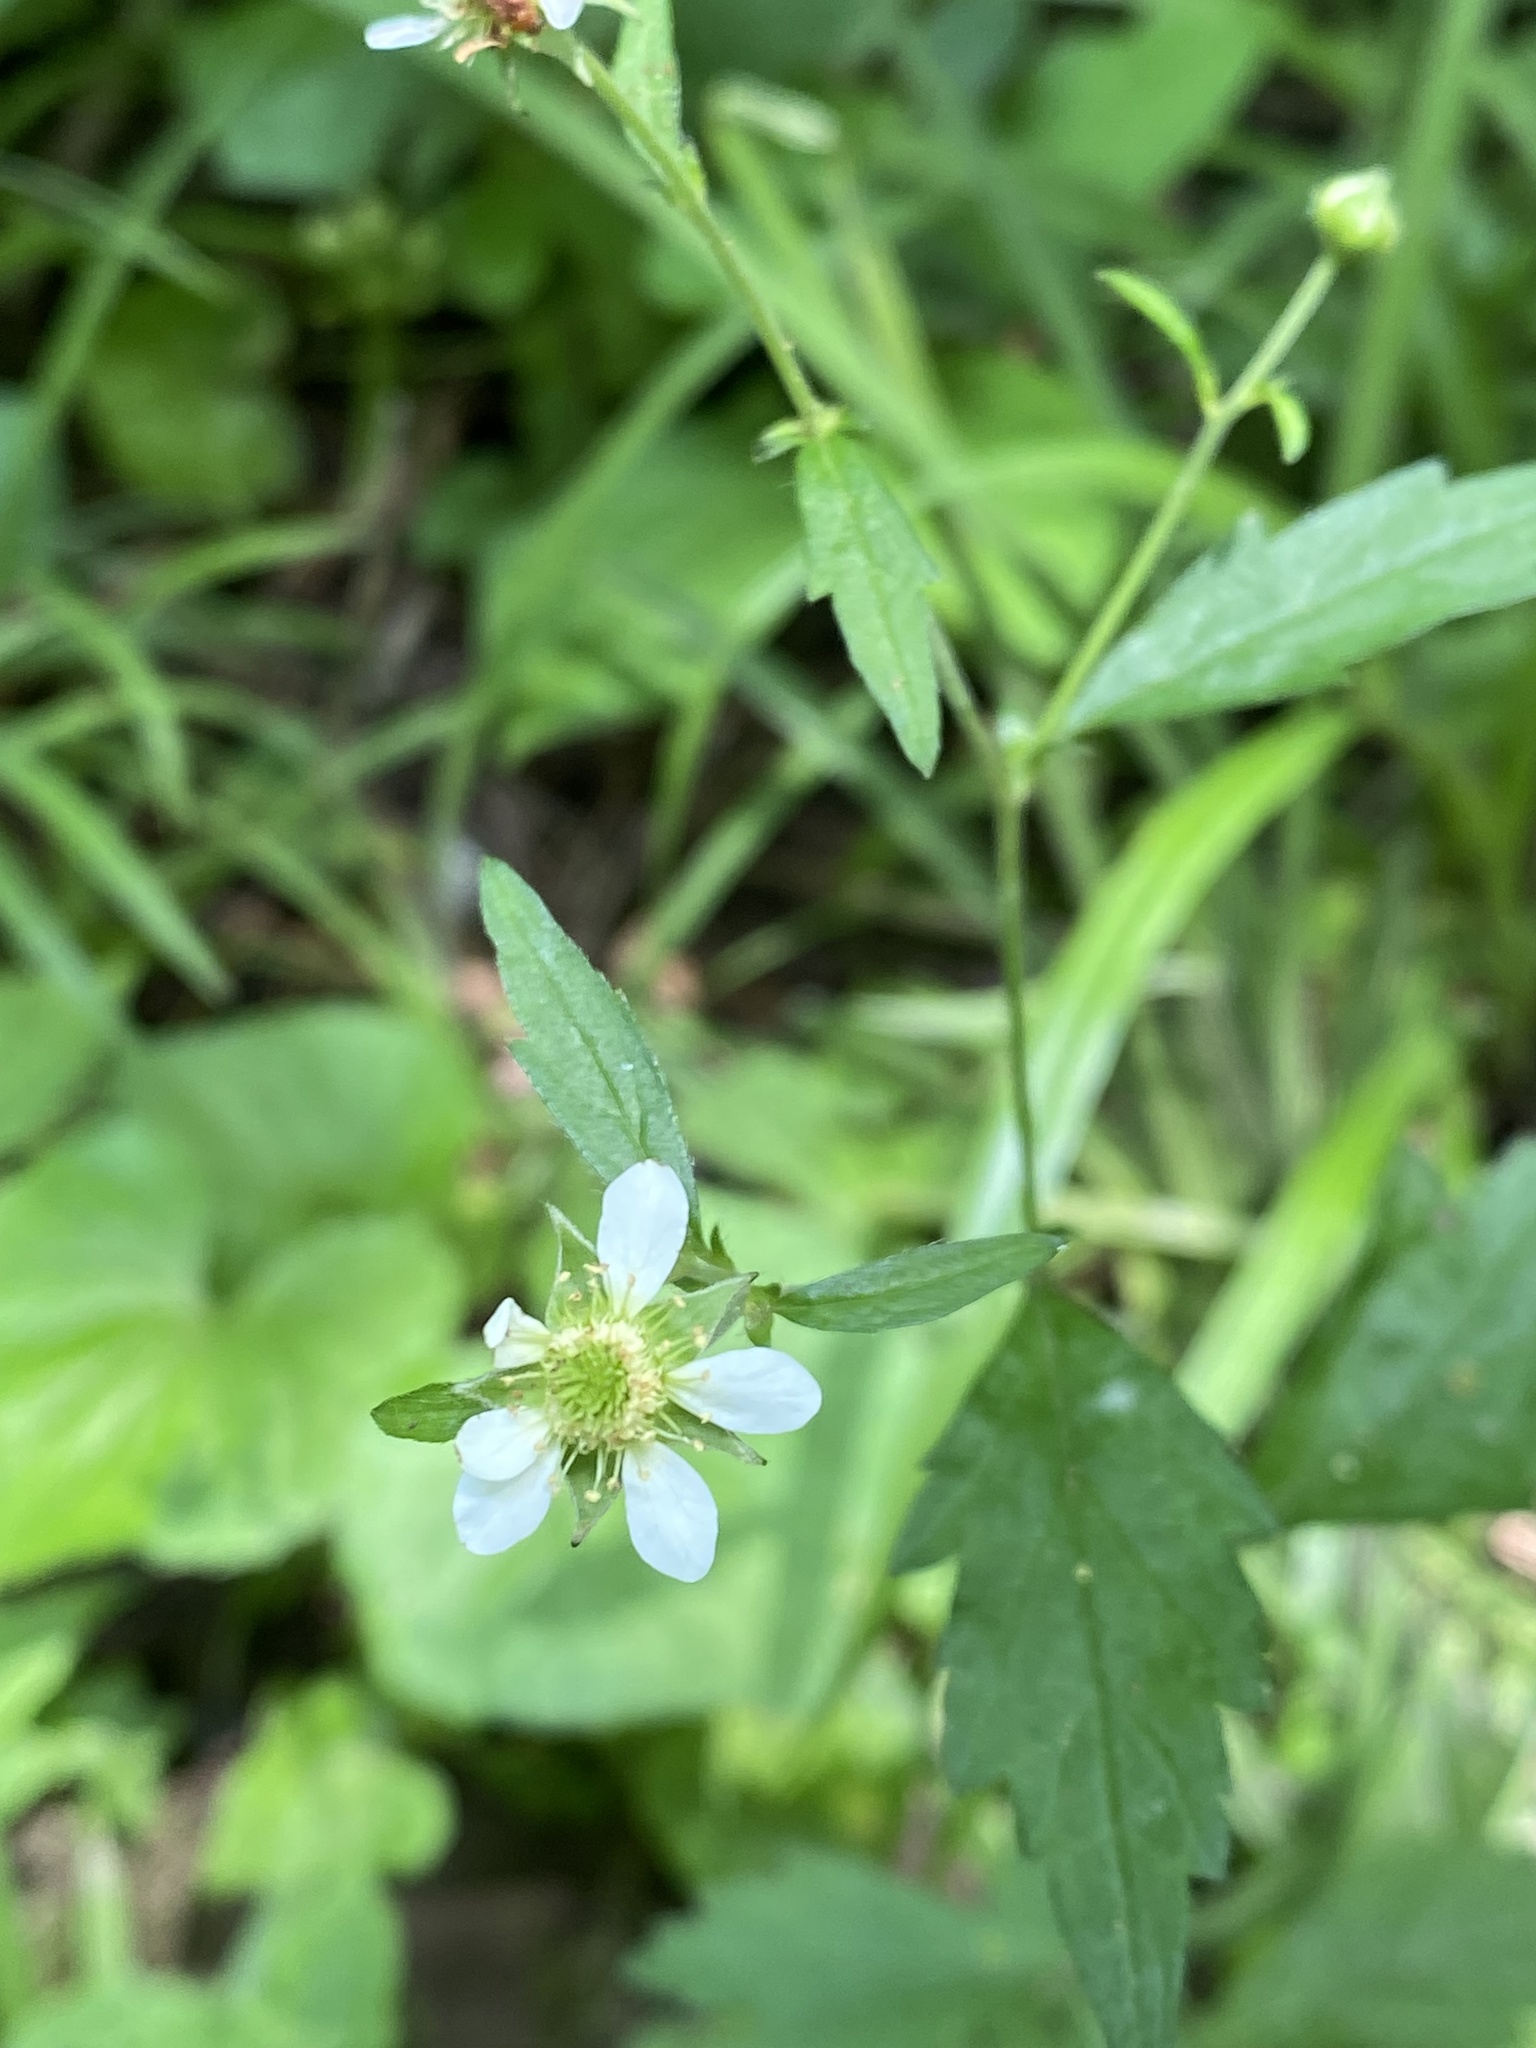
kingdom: Plantae
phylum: Tracheophyta
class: Magnoliopsida
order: Rosales
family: Rosaceae
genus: Geum
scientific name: Geum canadense
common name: White avens
